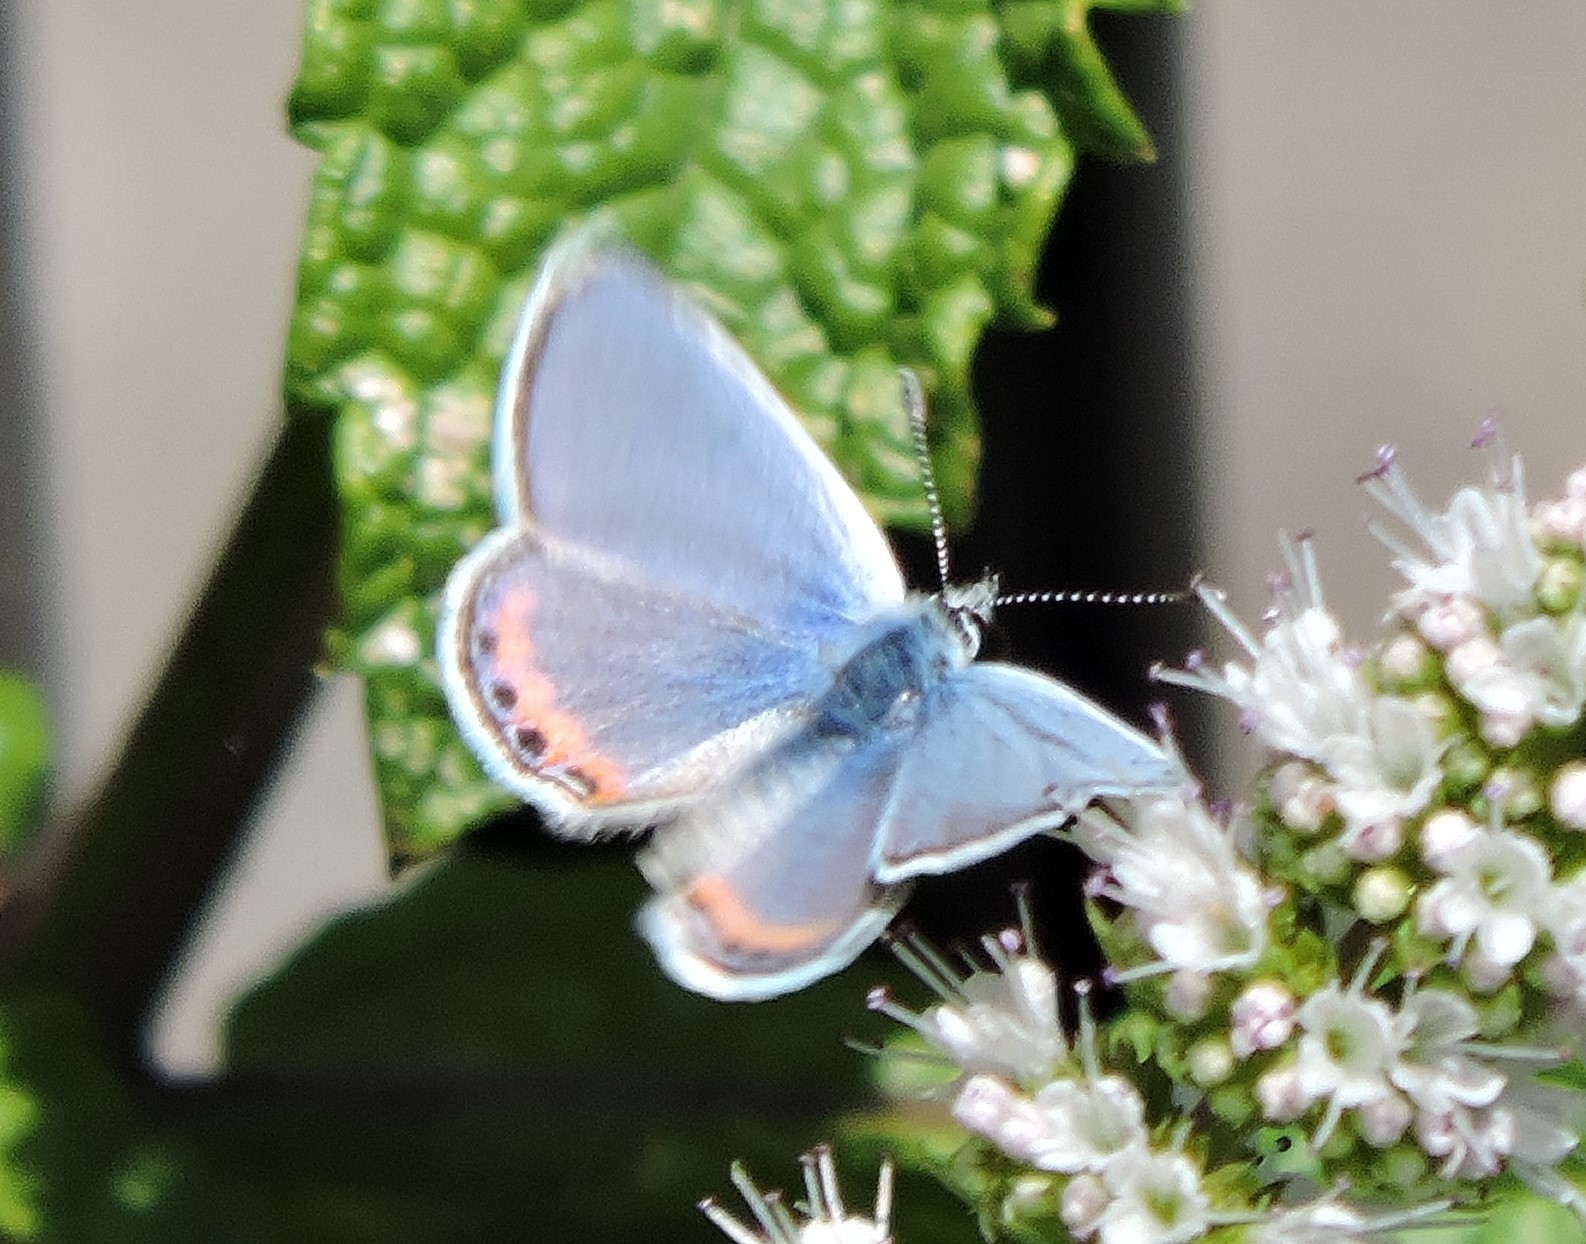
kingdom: Animalia
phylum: Arthropoda
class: Insecta
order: Lepidoptera
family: Lycaenidae
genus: Icaricia
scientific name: Icaricia acmon
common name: Acmon blue
